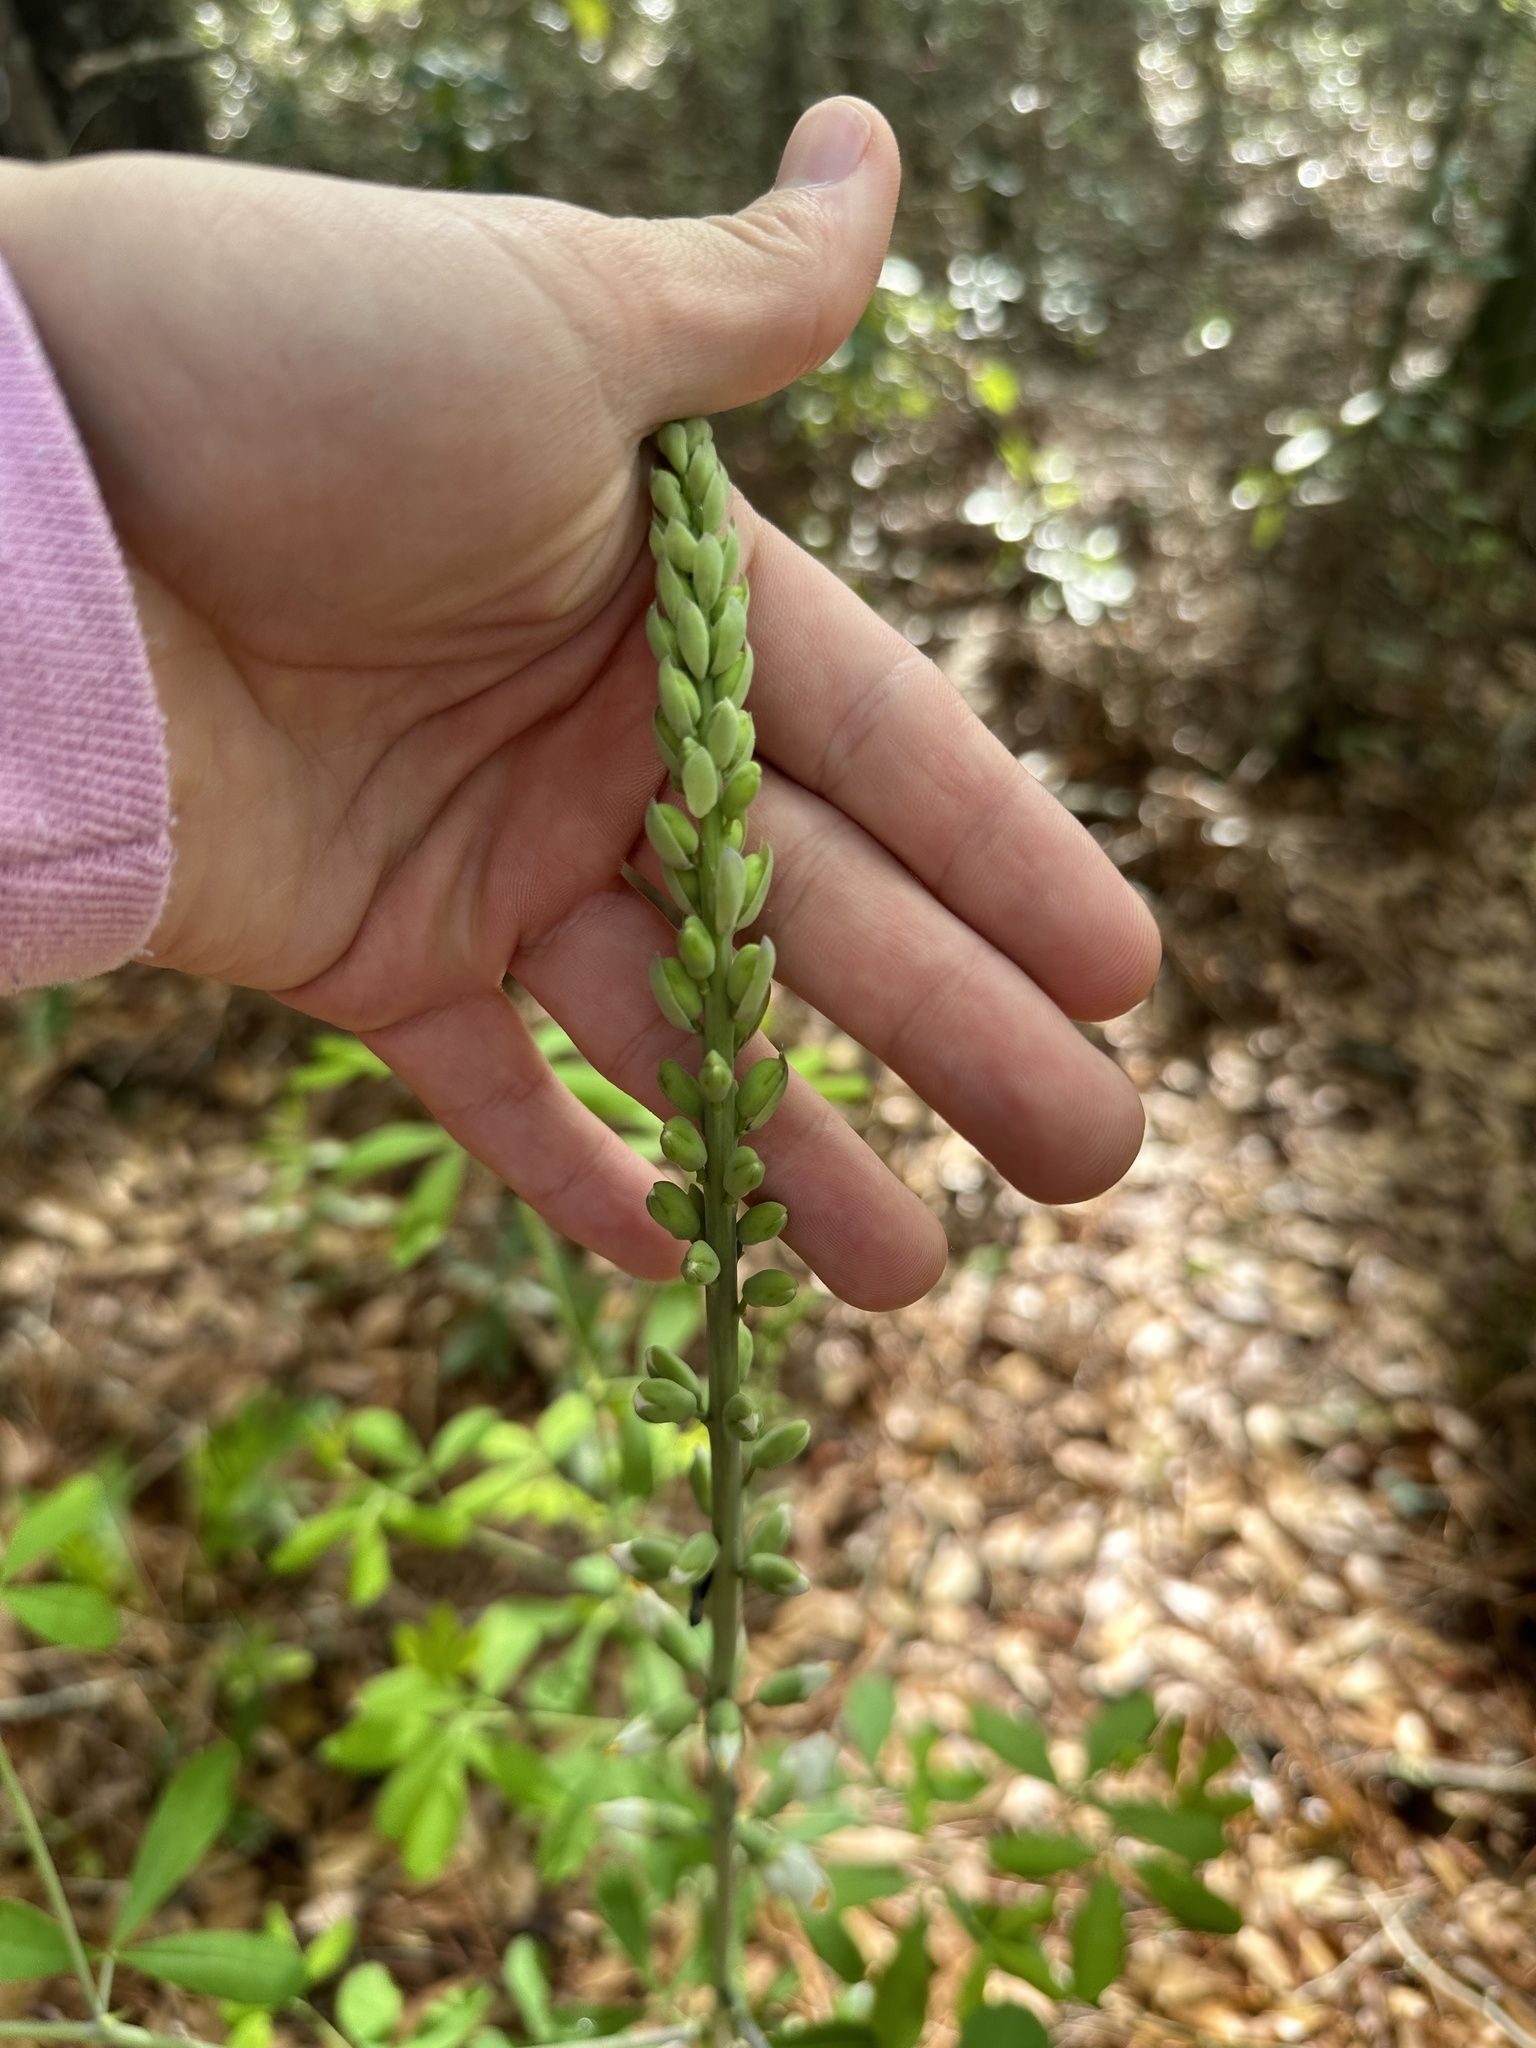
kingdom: Plantae
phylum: Tracheophyta
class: Magnoliopsida
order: Fabales
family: Fabaceae
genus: Baptisia
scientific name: Baptisia alba
